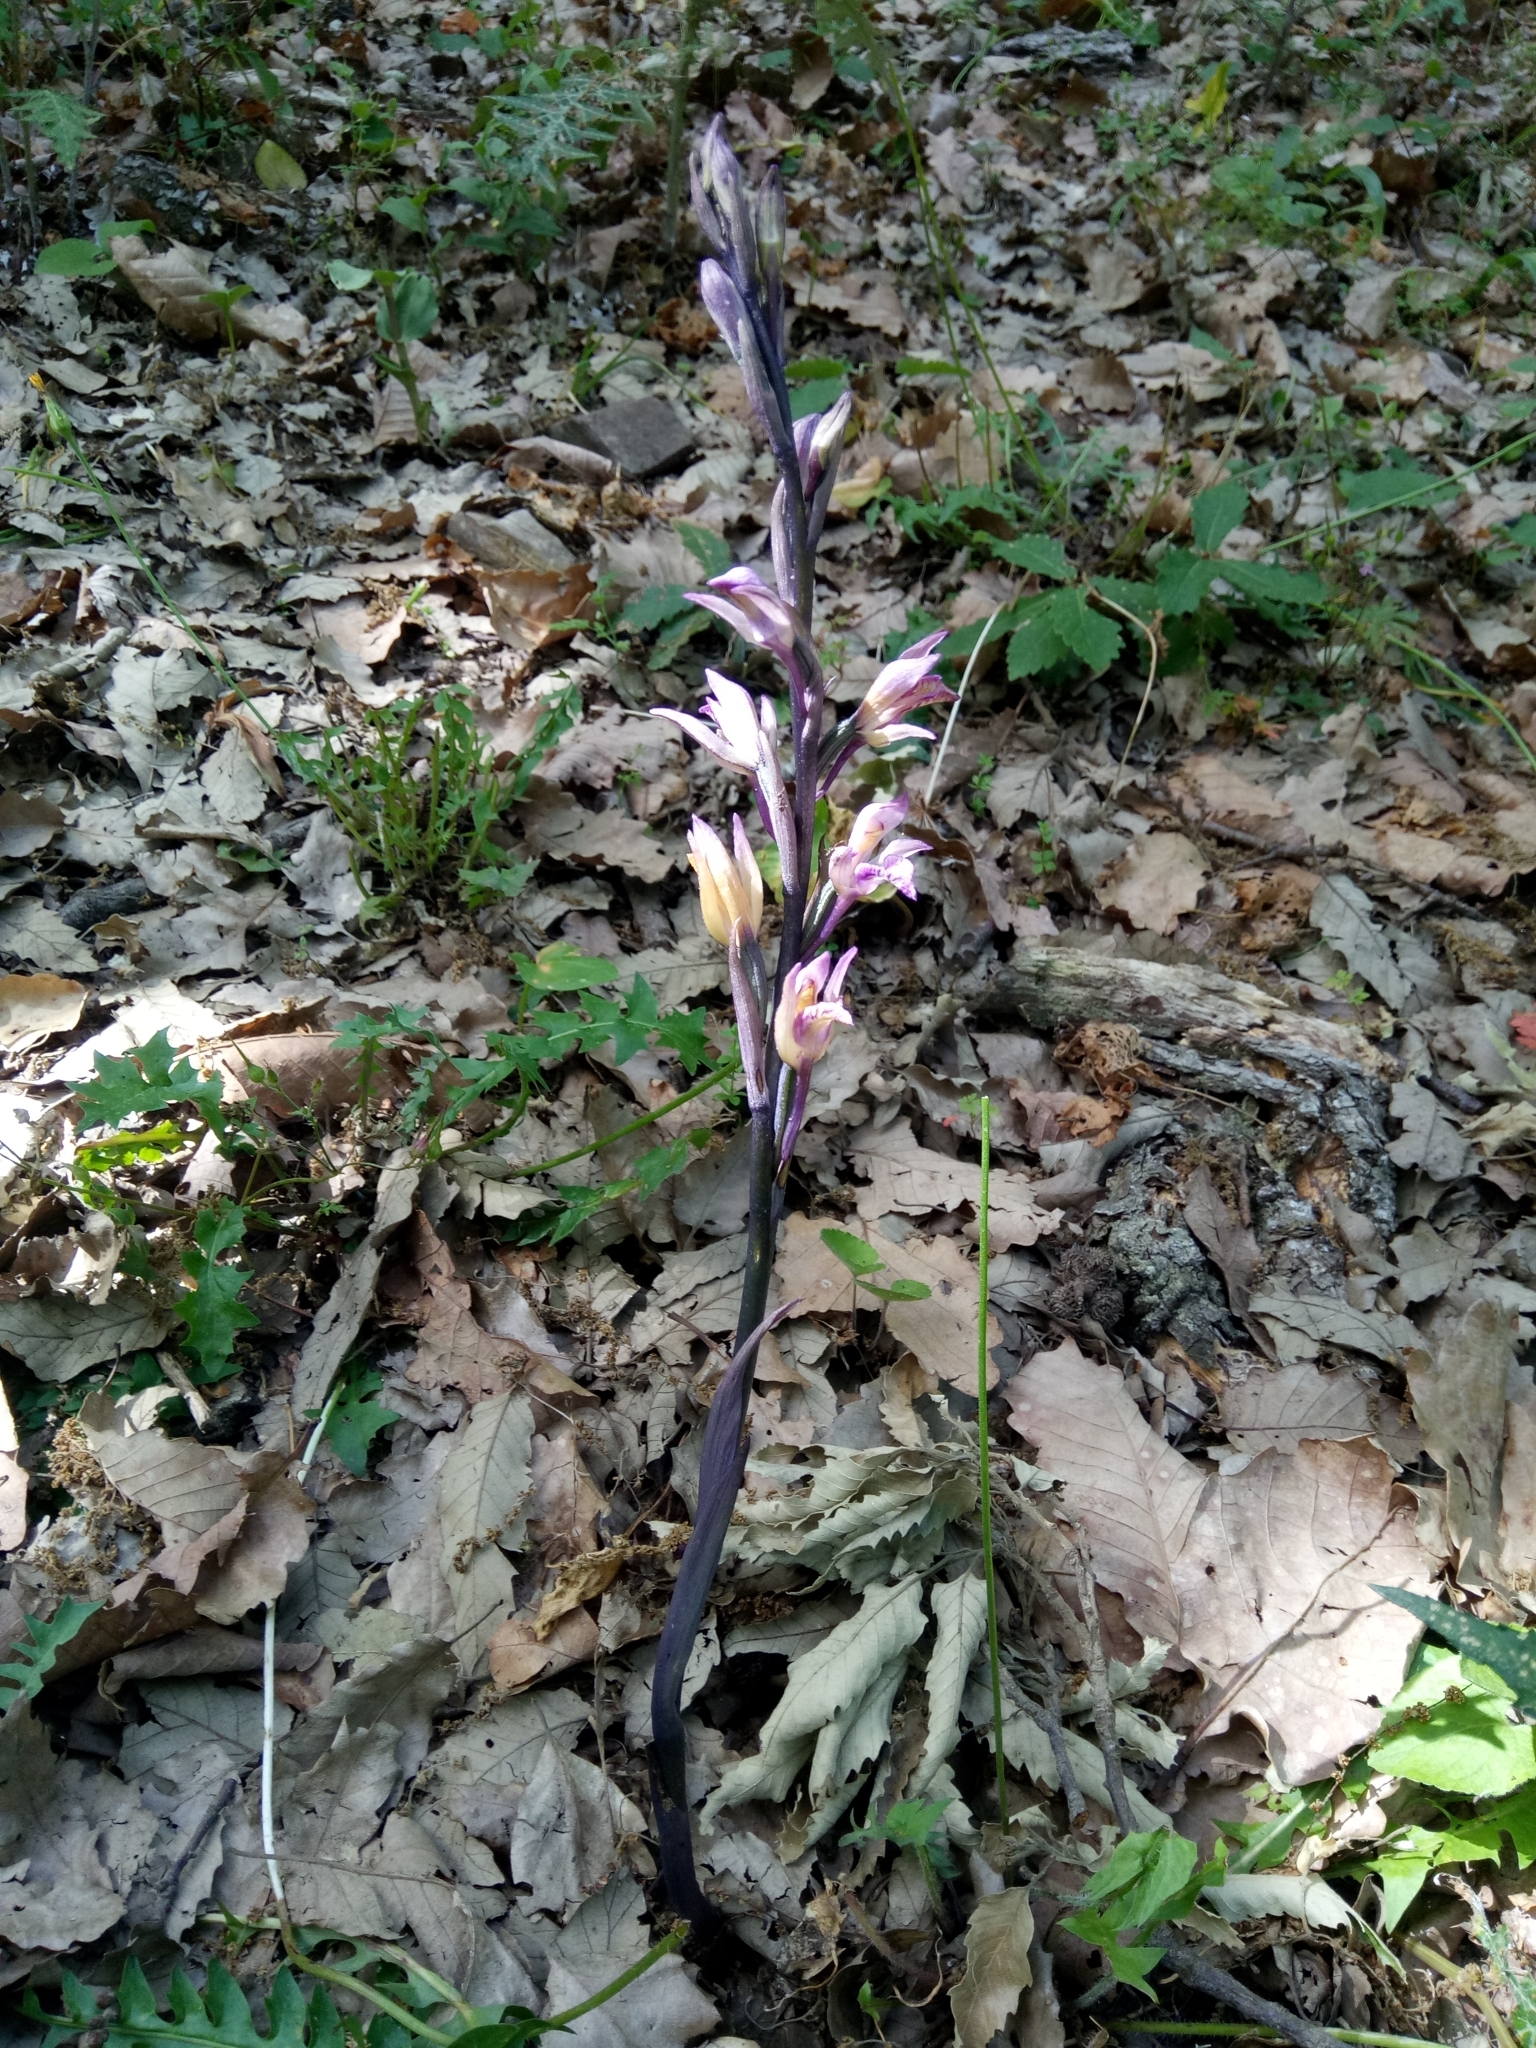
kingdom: Plantae
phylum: Tracheophyta
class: Liliopsida
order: Asparagales
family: Orchidaceae
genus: Limodorum
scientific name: Limodorum abortivum
